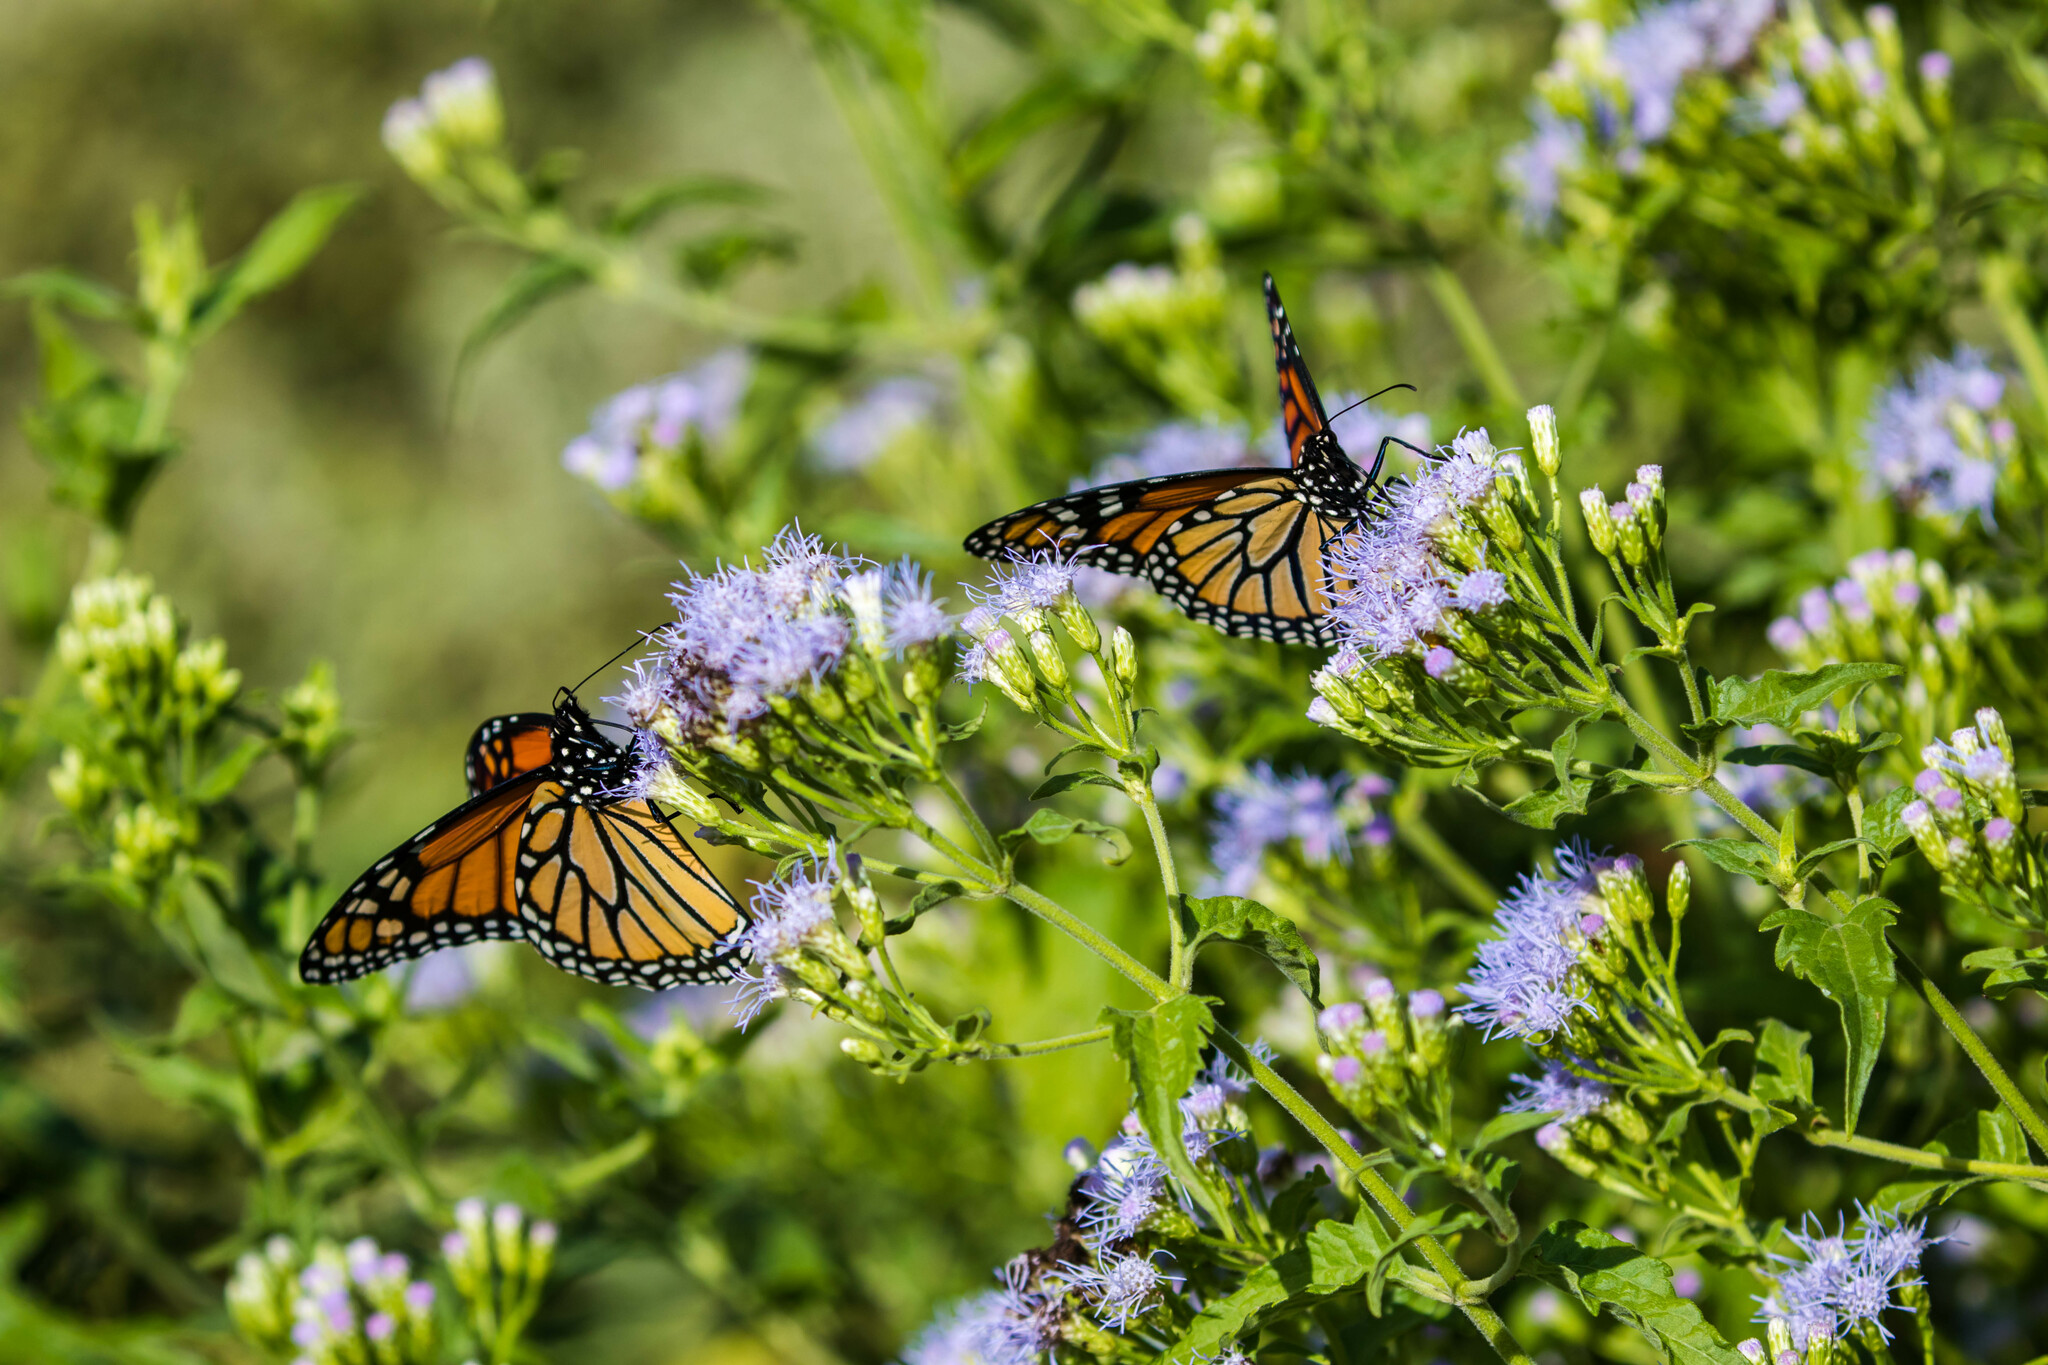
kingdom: Animalia
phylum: Arthropoda
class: Insecta
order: Lepidoptera
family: Nymphalidae
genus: Danaus
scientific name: Danaus plexippus
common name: Monarch
